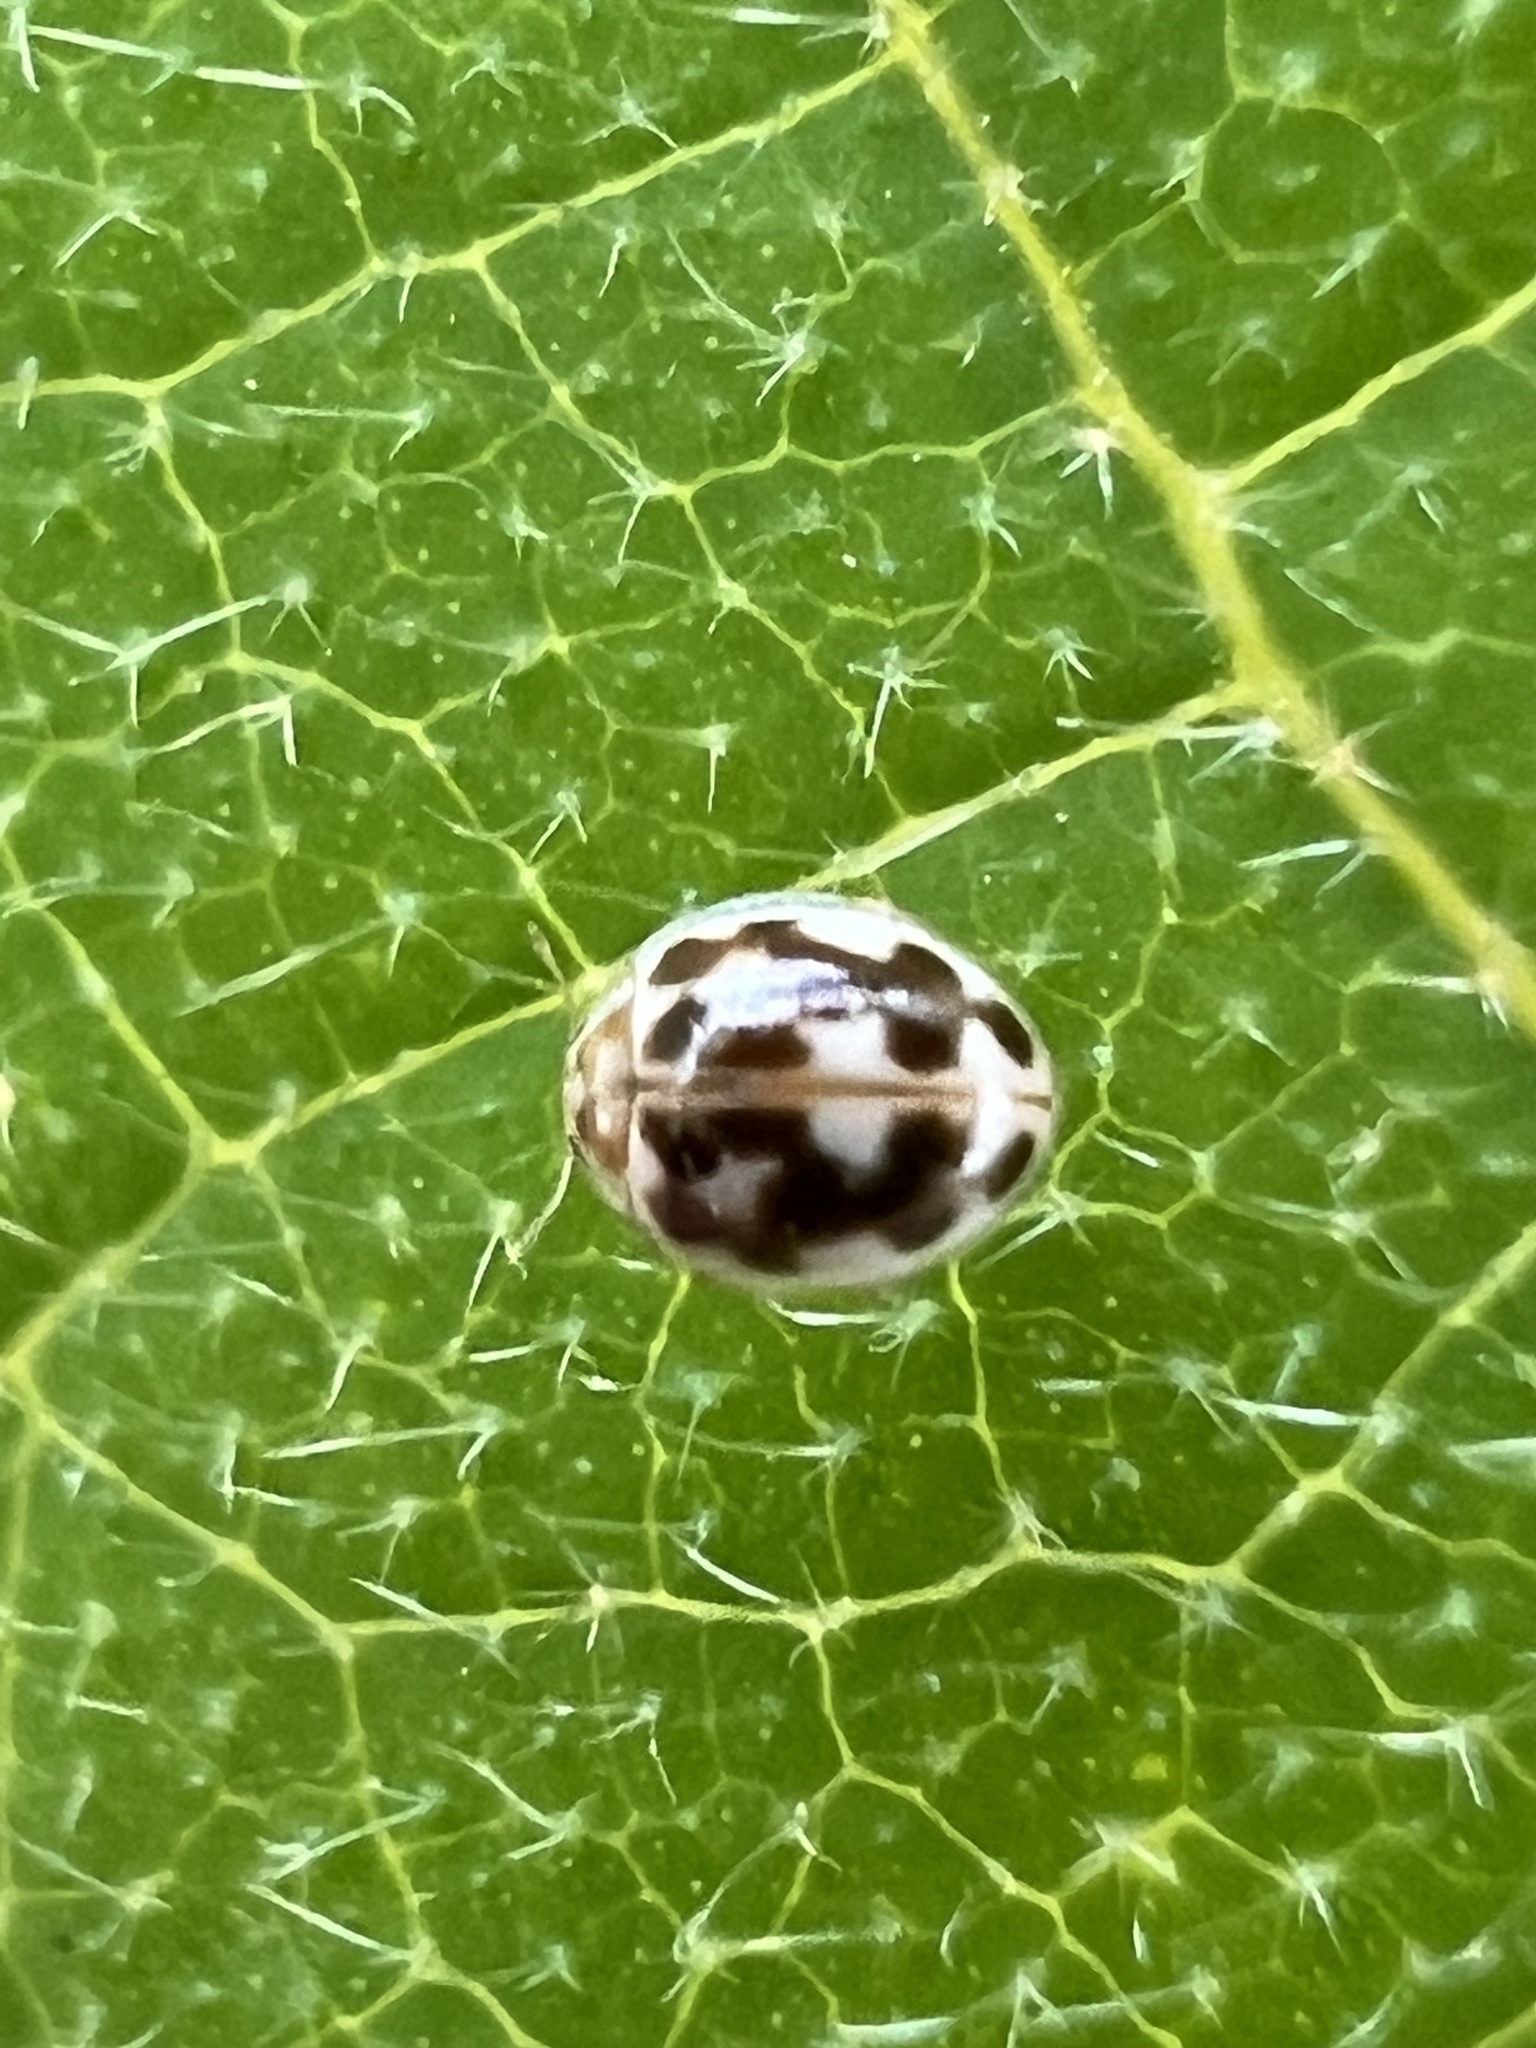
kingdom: Animalia
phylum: Arthropoda
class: Insecta
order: Coleoptera
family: Coccinellidae
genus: Psyllobora
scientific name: Psyllobora vigintimaculata
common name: Ladybird beetle
